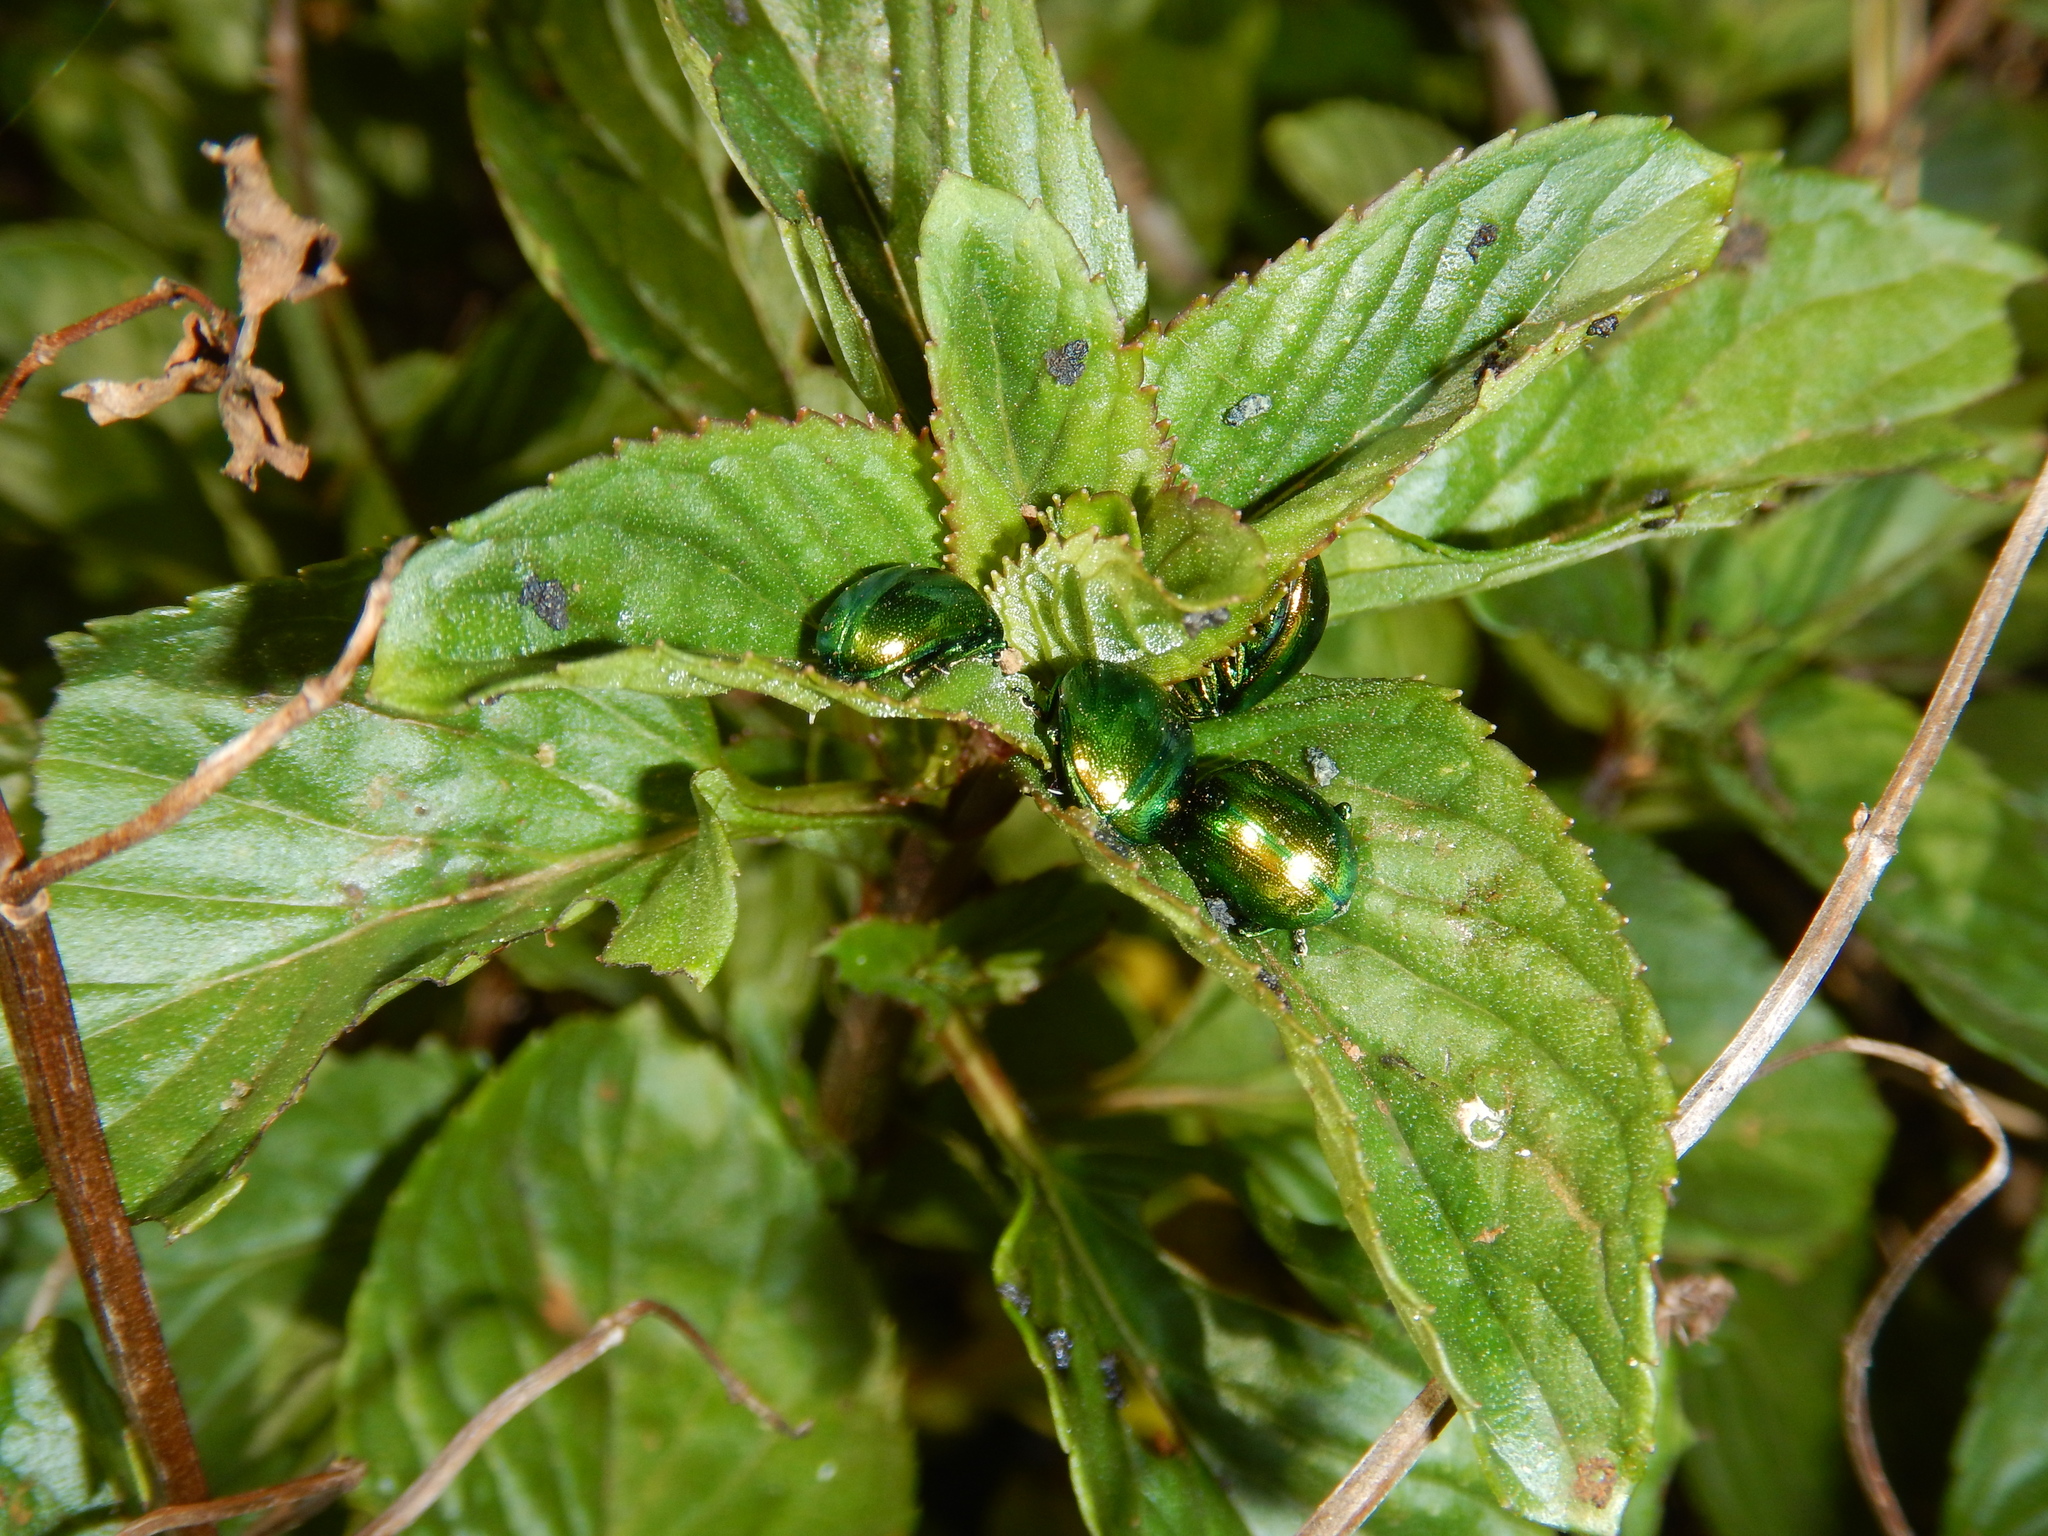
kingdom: Animalia
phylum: Arthropoda
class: Insecta
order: Coleoptera
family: Chrysomelidae
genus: Chrysolina
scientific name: Chrysolina herbacea
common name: Mint leaf beatle
